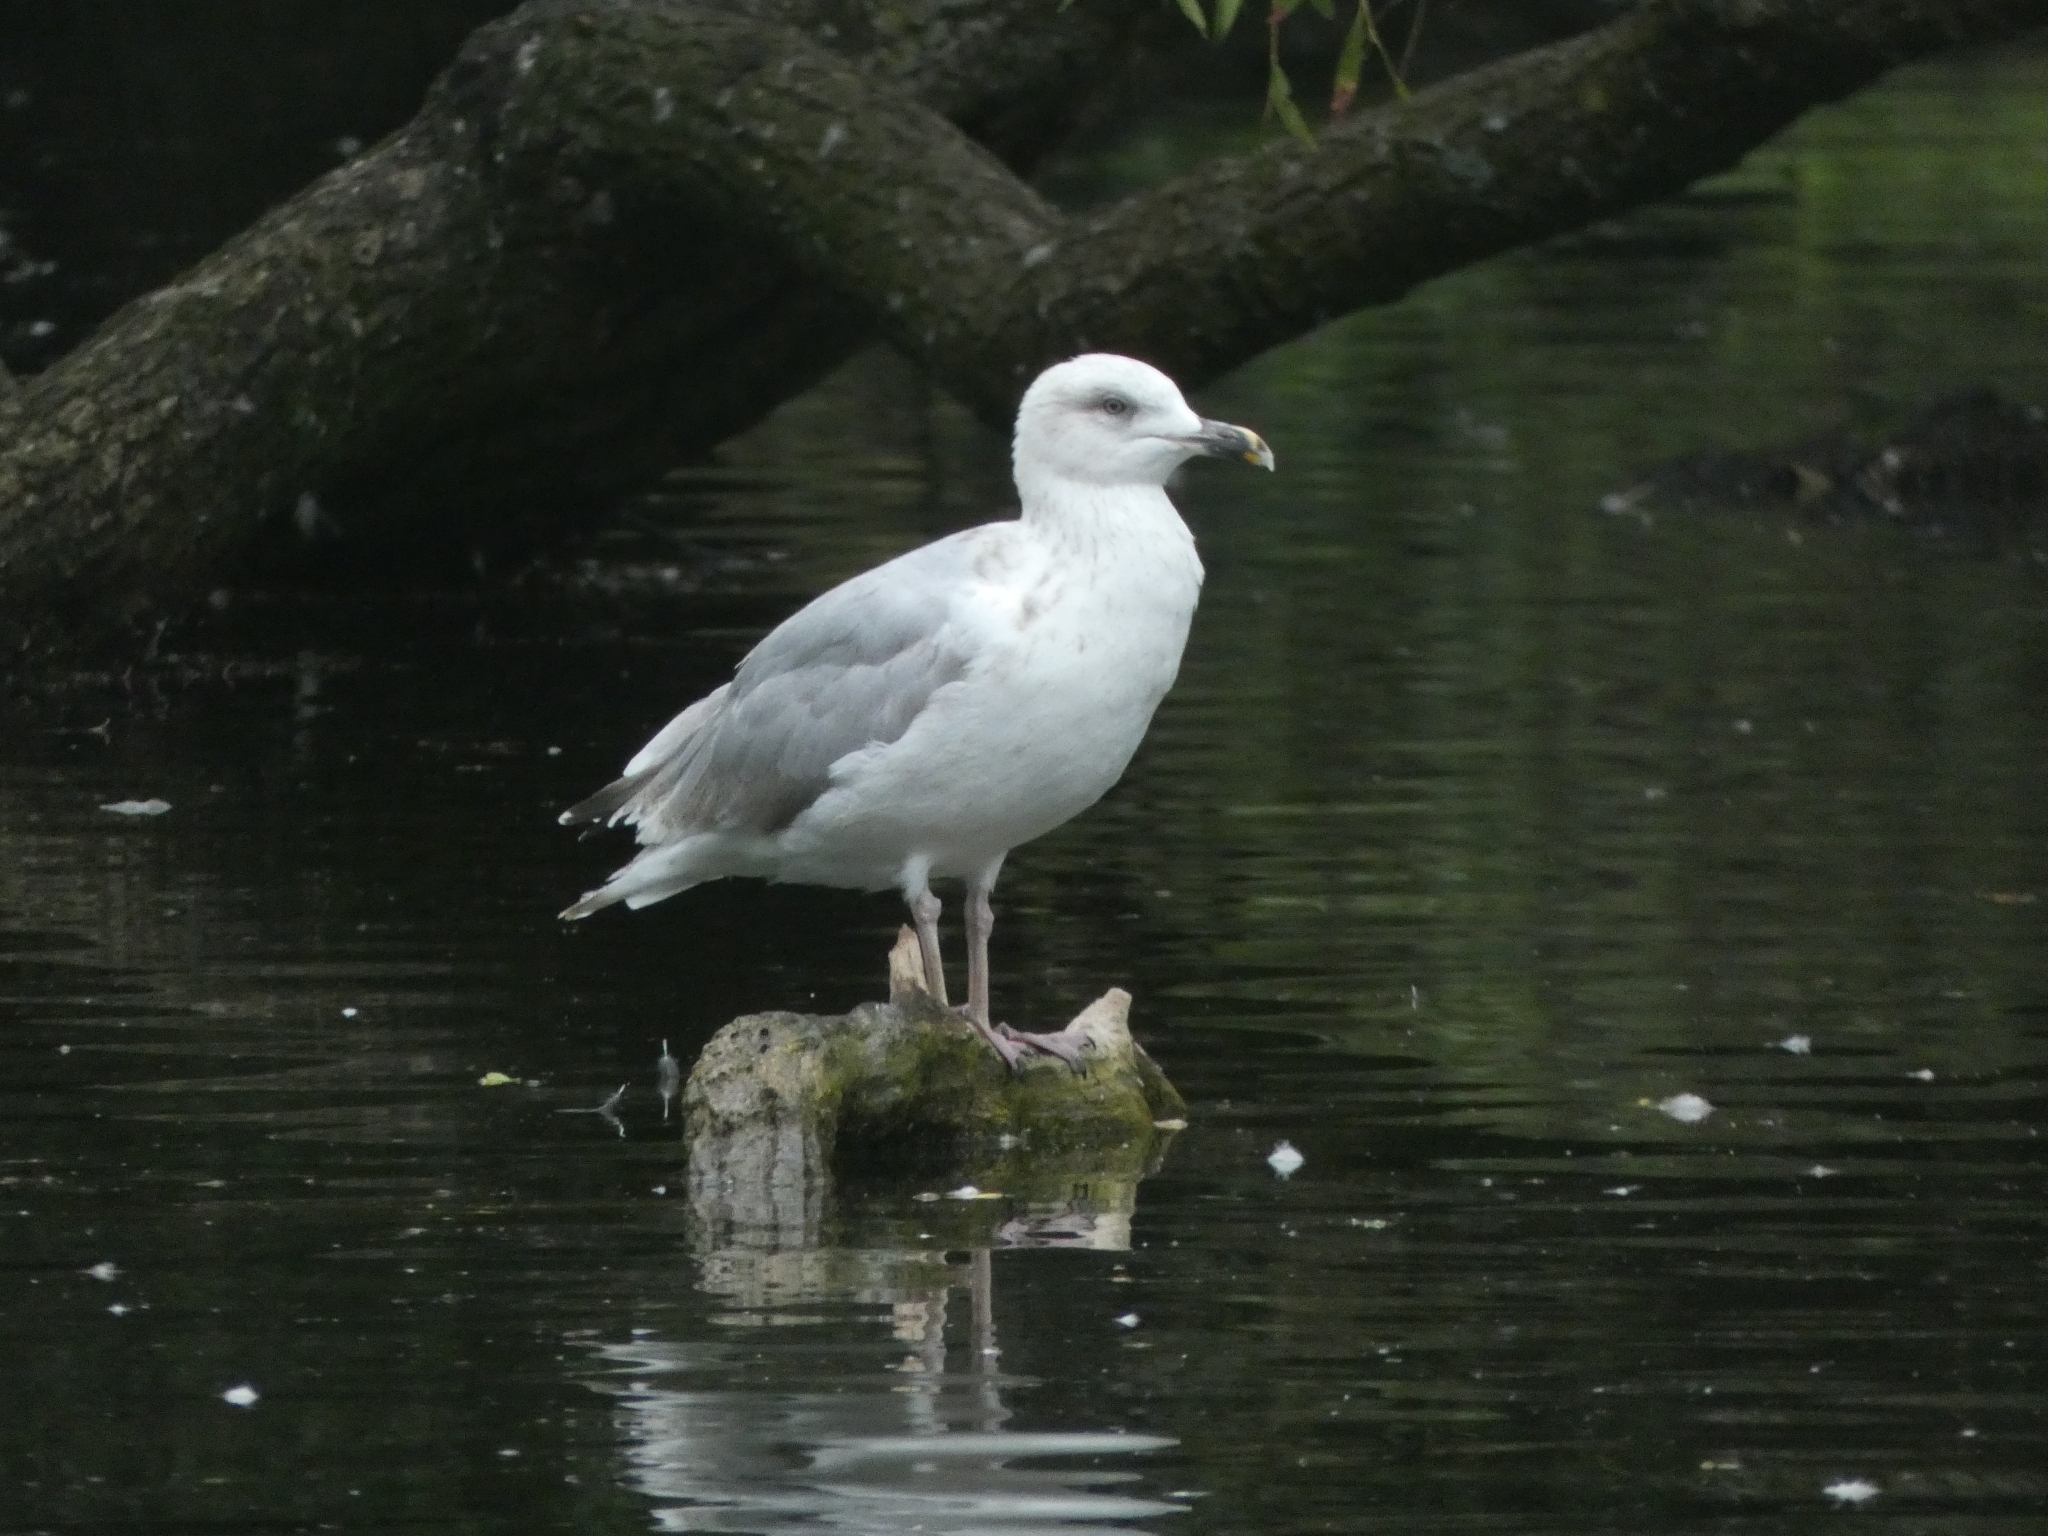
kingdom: Animalia
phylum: Chordata
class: Aves
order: Charadriiformes
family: Laridae
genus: Larus
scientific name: Larus argentatus
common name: Herring gull
